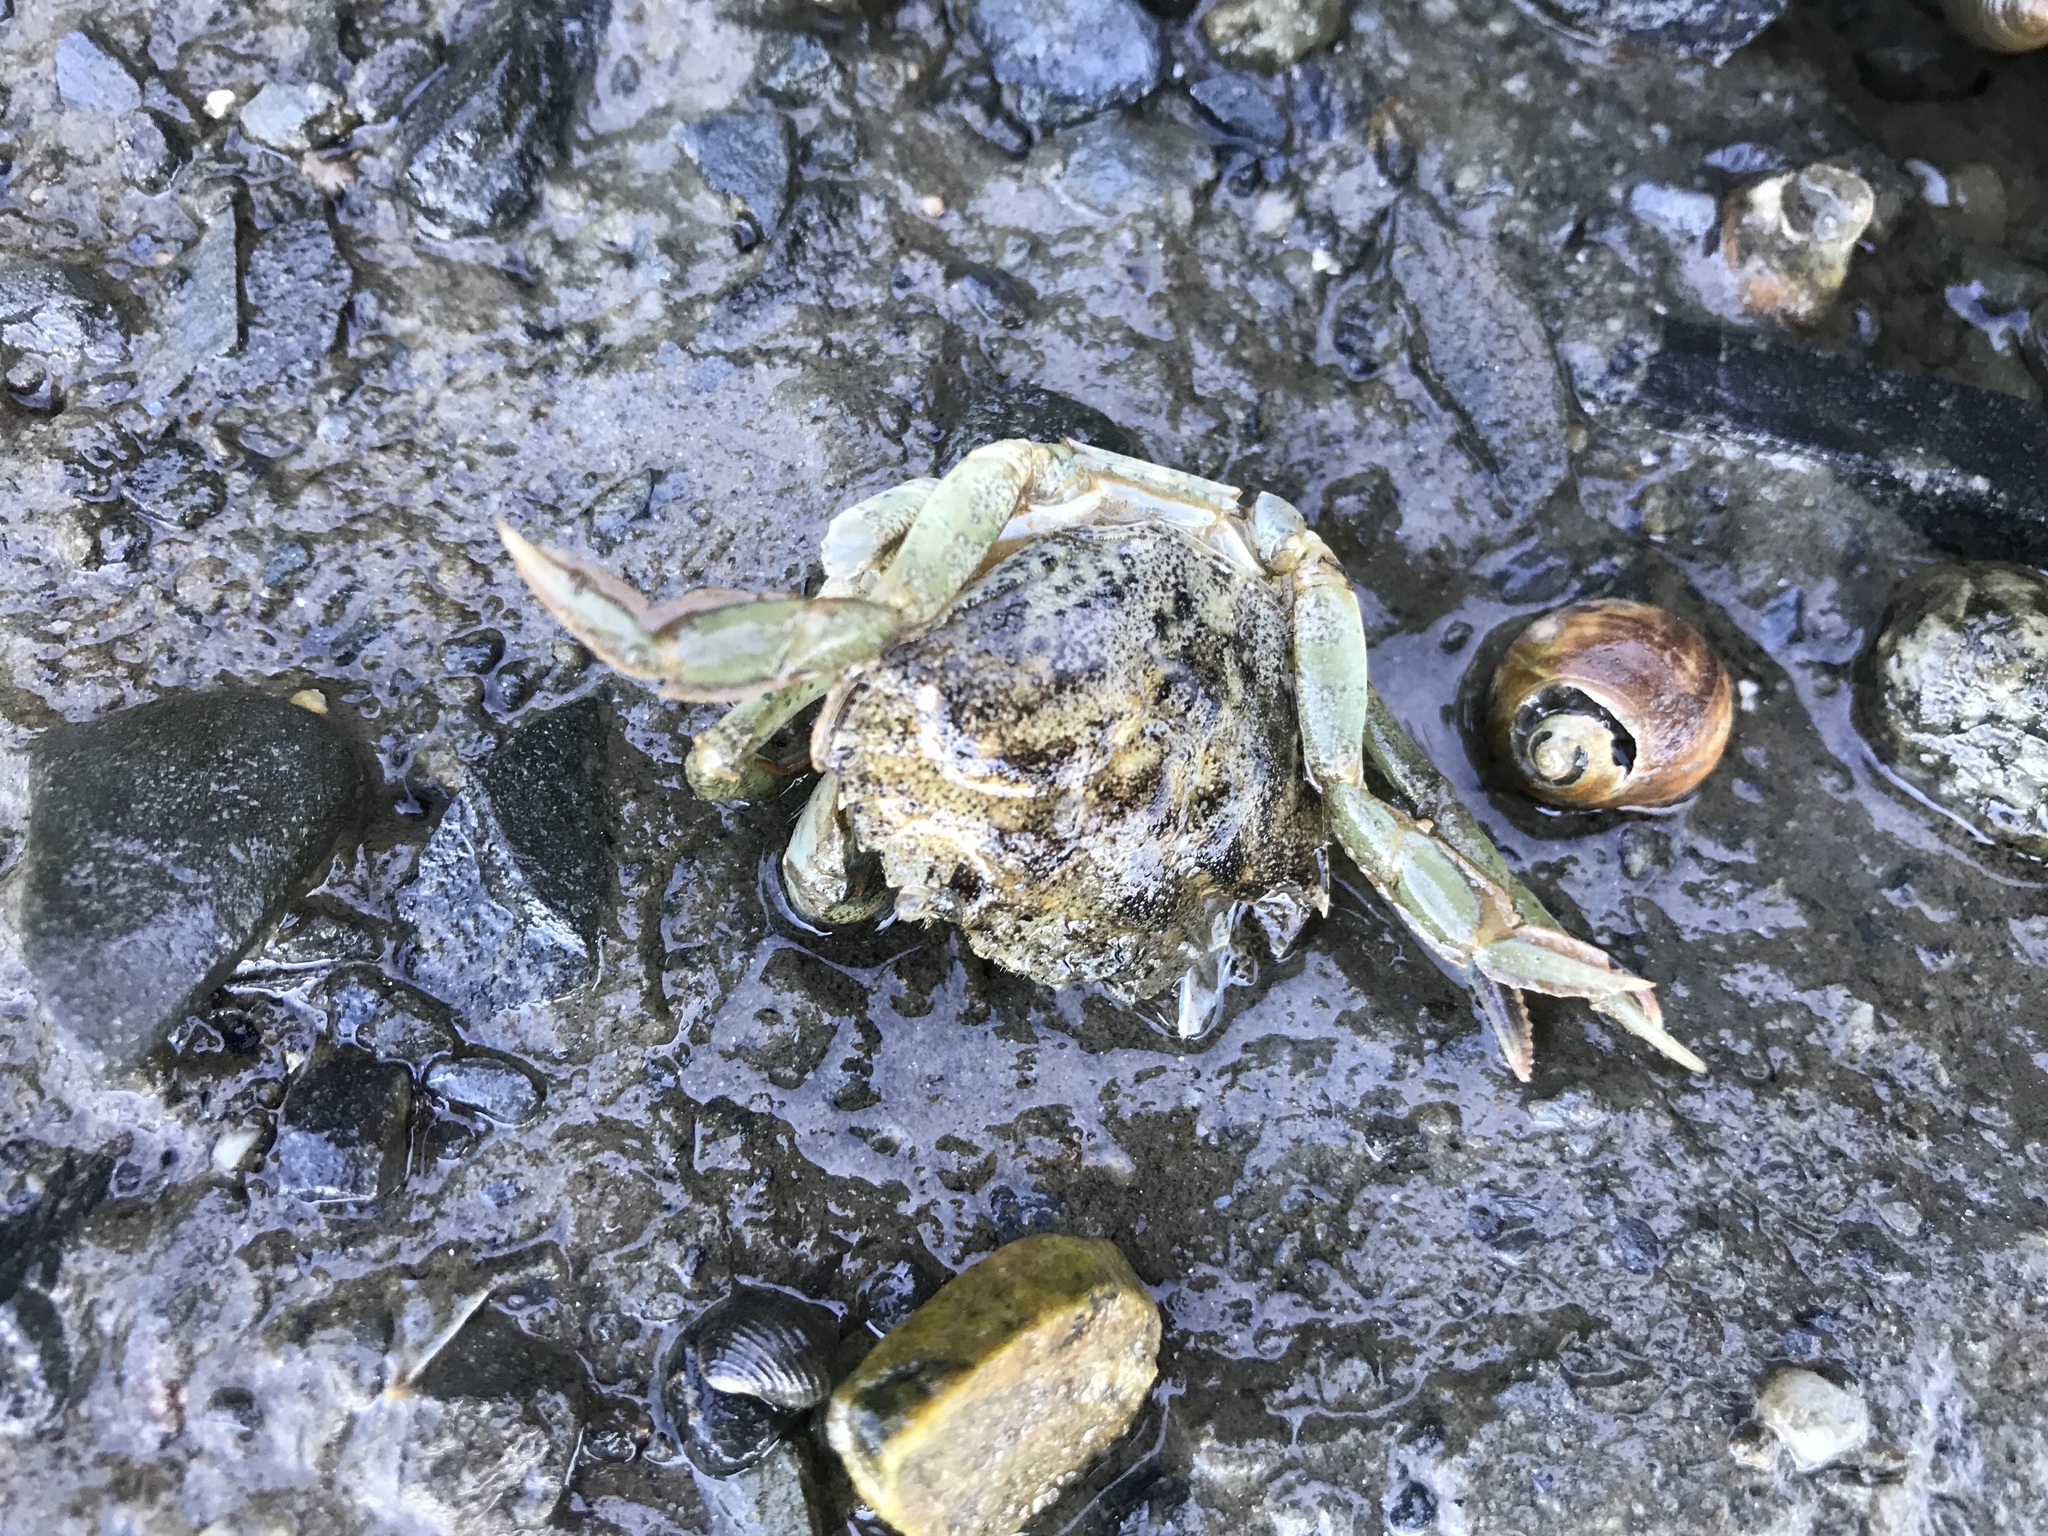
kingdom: Animalia
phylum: Arthropoda
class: Malacostraca
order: Decapoda
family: Carcinidae
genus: Carcinus
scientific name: Carcinus maenas
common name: European green crab
